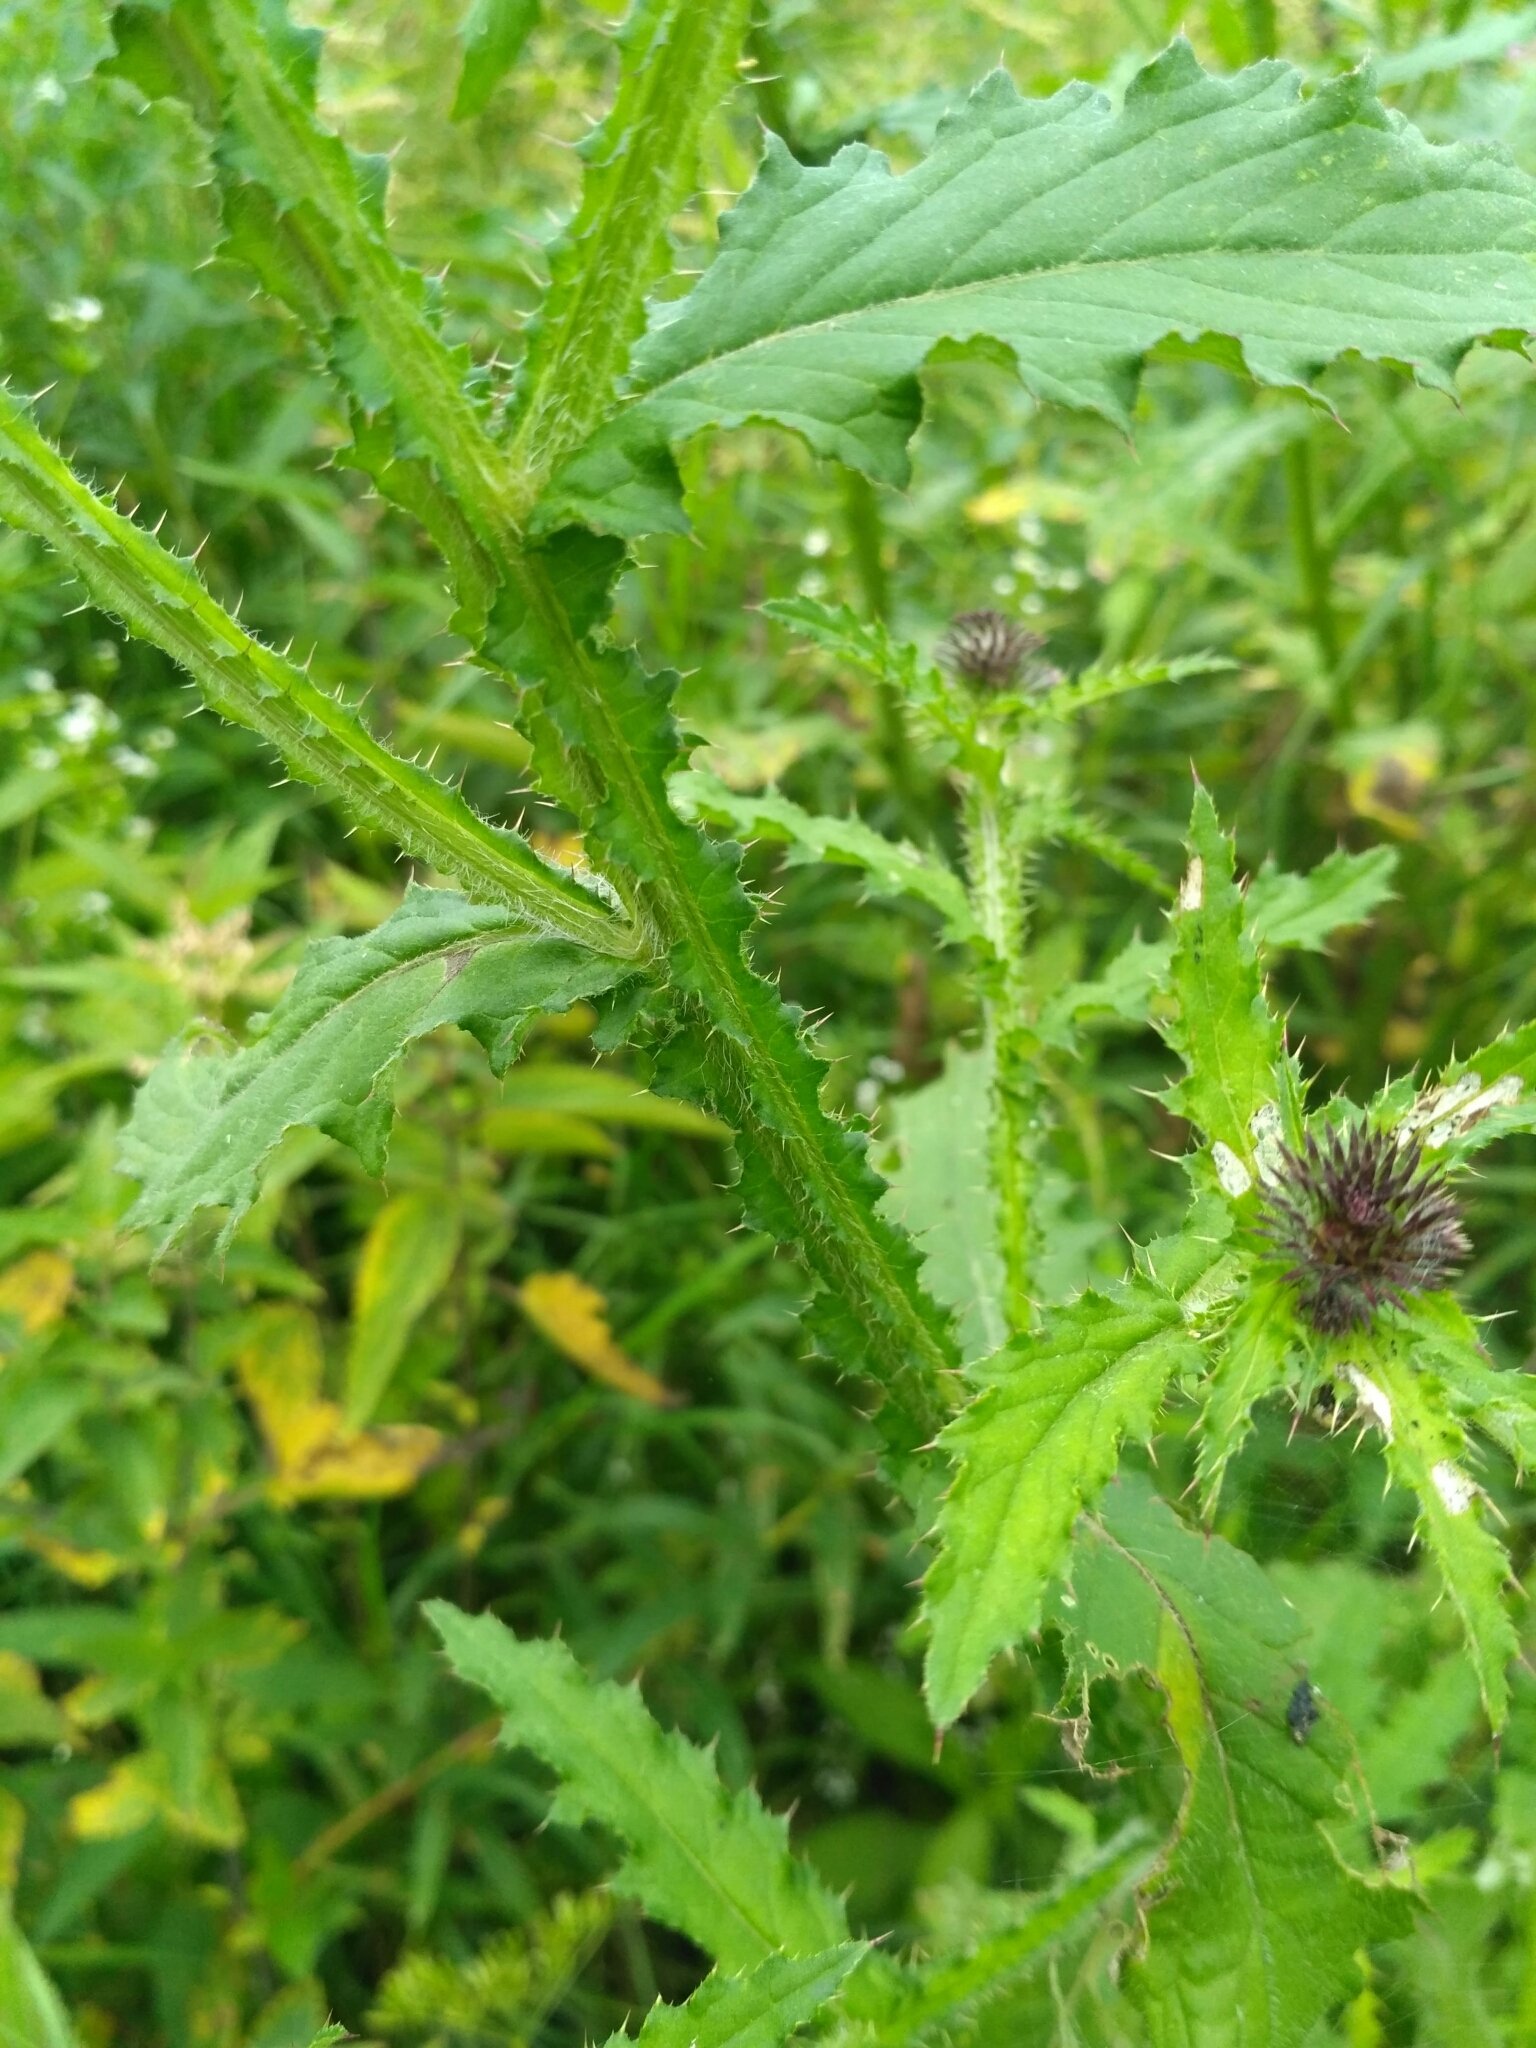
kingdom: Plantae
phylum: Tracheophyta
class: Magnoliopsida
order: Asterales
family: Asteraceae
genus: Carduus
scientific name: Carduus crispus
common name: Welted thistle
